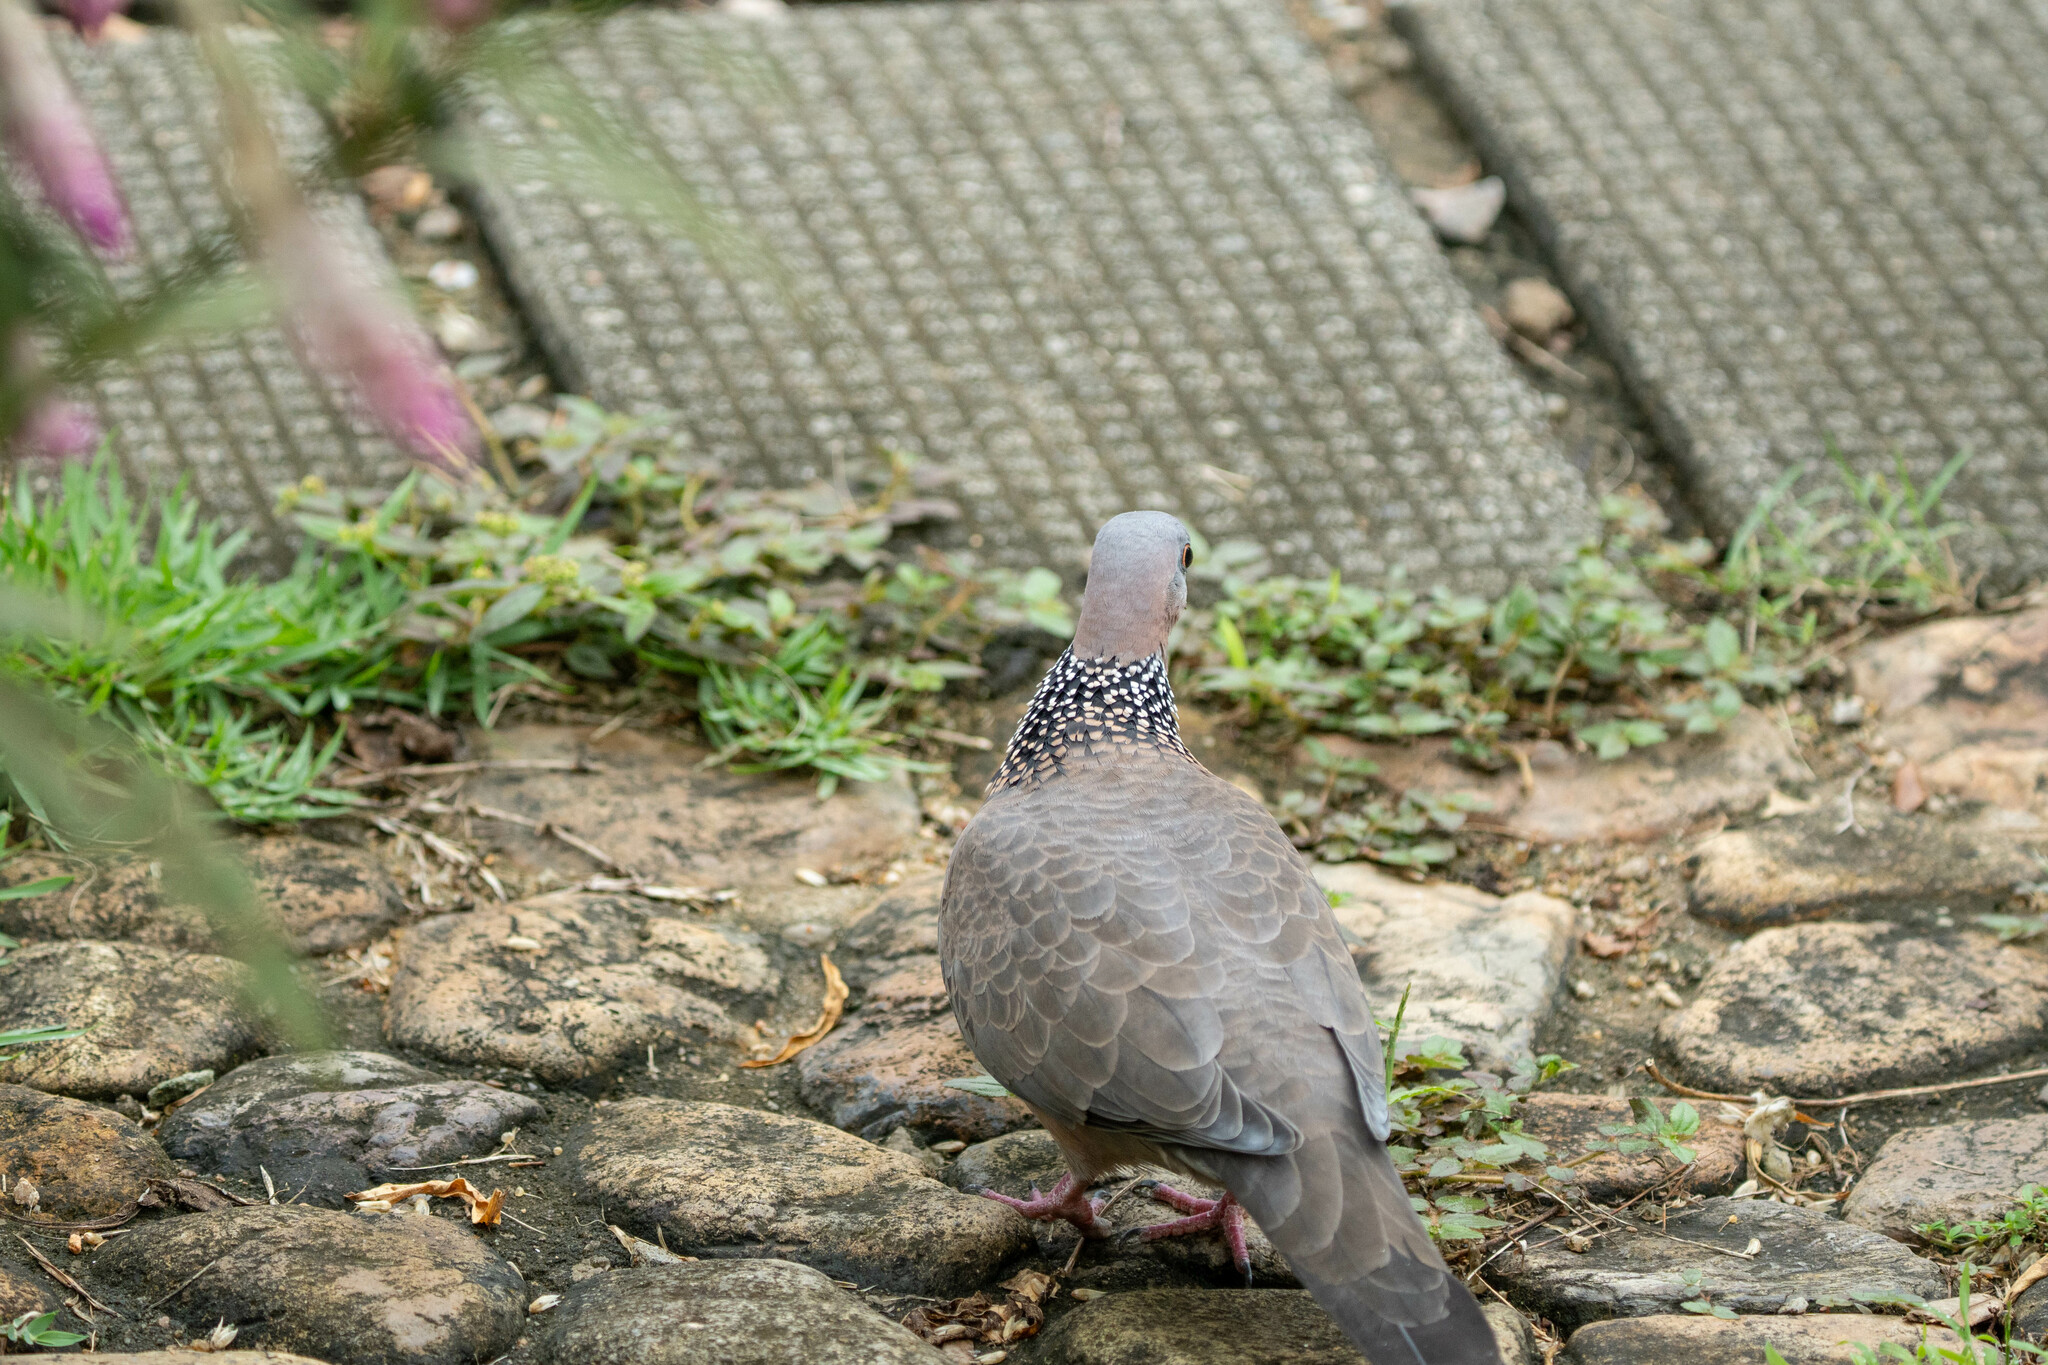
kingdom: Animalia
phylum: Chordata
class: Aves
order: Columbiformes
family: Columbidae
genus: Spilopelia
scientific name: Spilopelia chinensis
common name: Spotted dove
